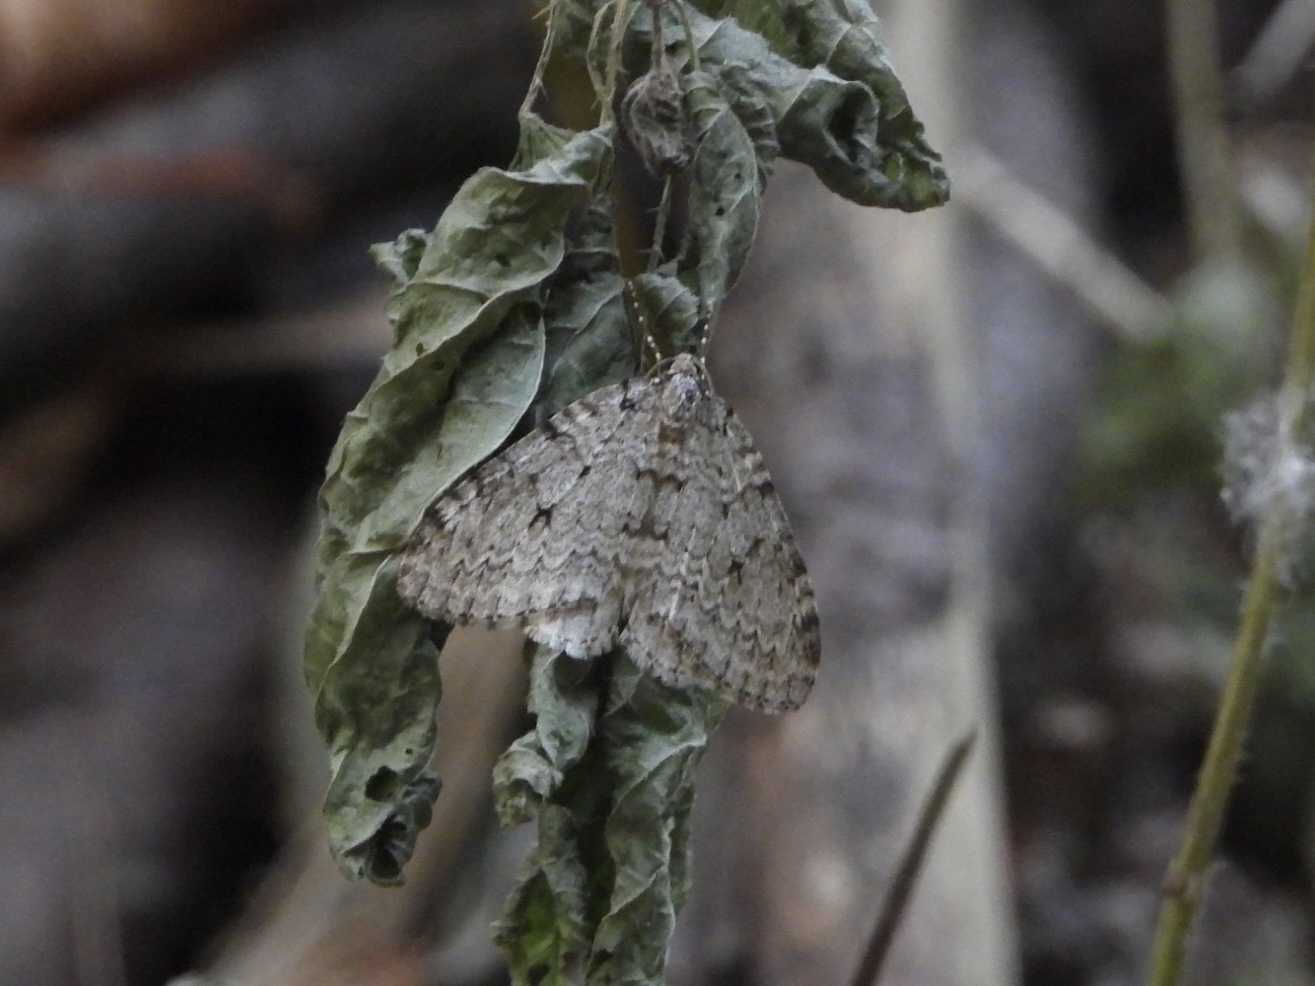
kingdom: Animalia
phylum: Arthropoda
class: Insecta
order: Lepidoptera
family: Geometridae
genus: Epirrita
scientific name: Epirrita autumnata
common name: Autumnal moth
